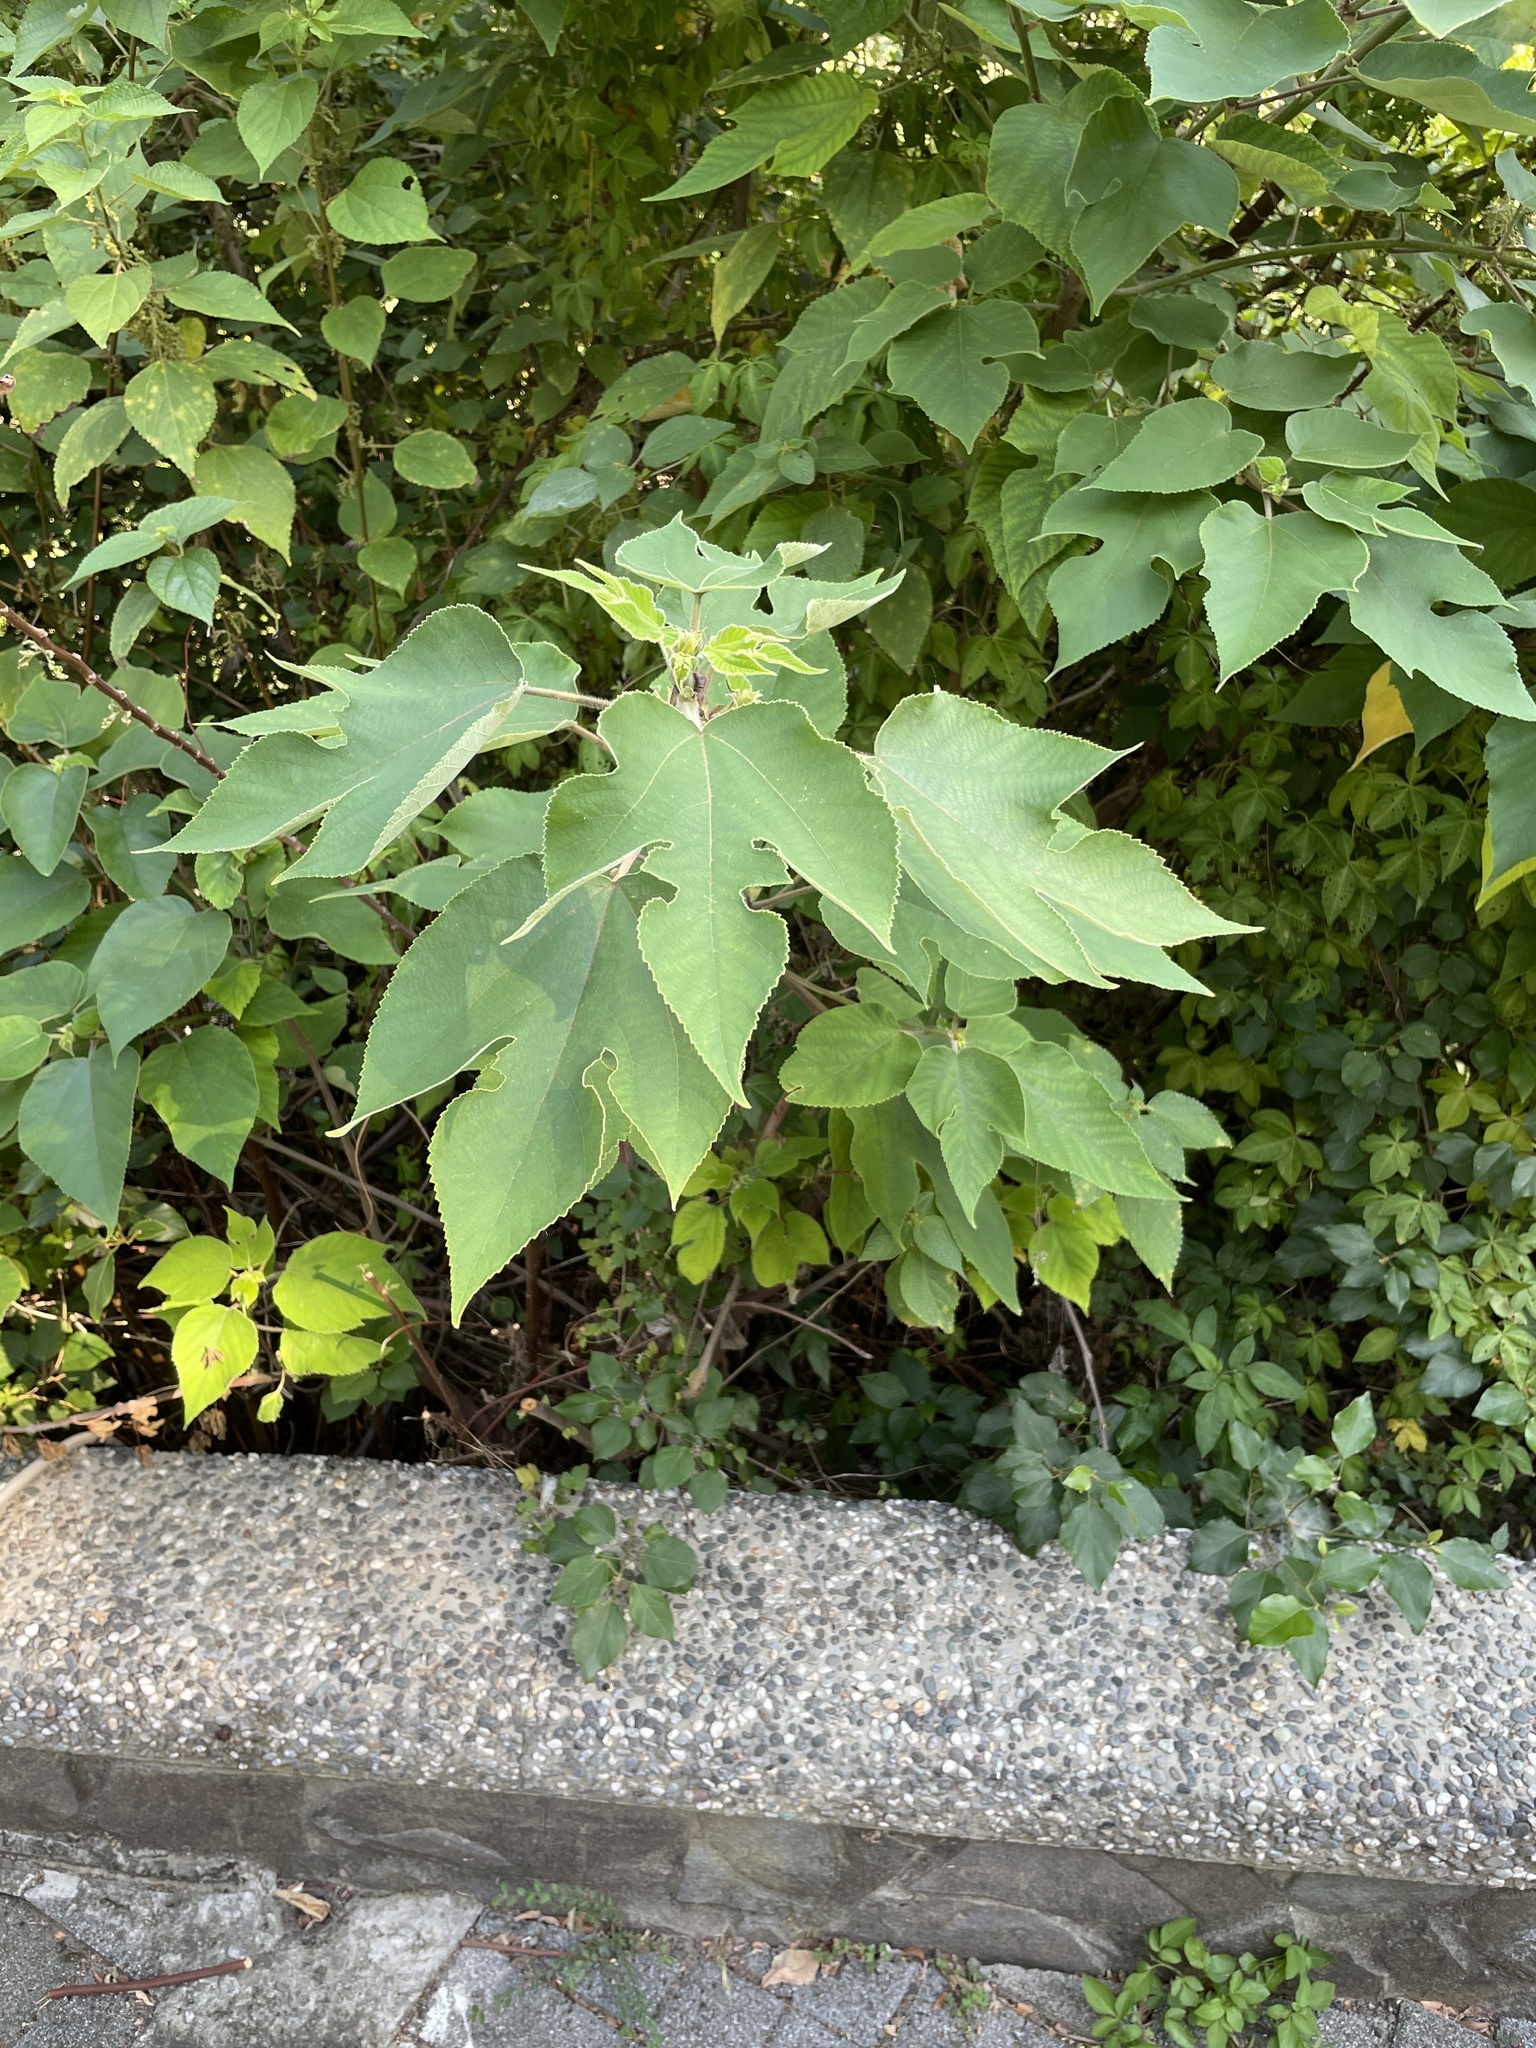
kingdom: Plantae
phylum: Tracheophyta
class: Magnoliopsida
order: Rosales
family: Moraceae
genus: Broussonetia
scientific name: Broussonetia papyrifera
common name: Paper mulberry
